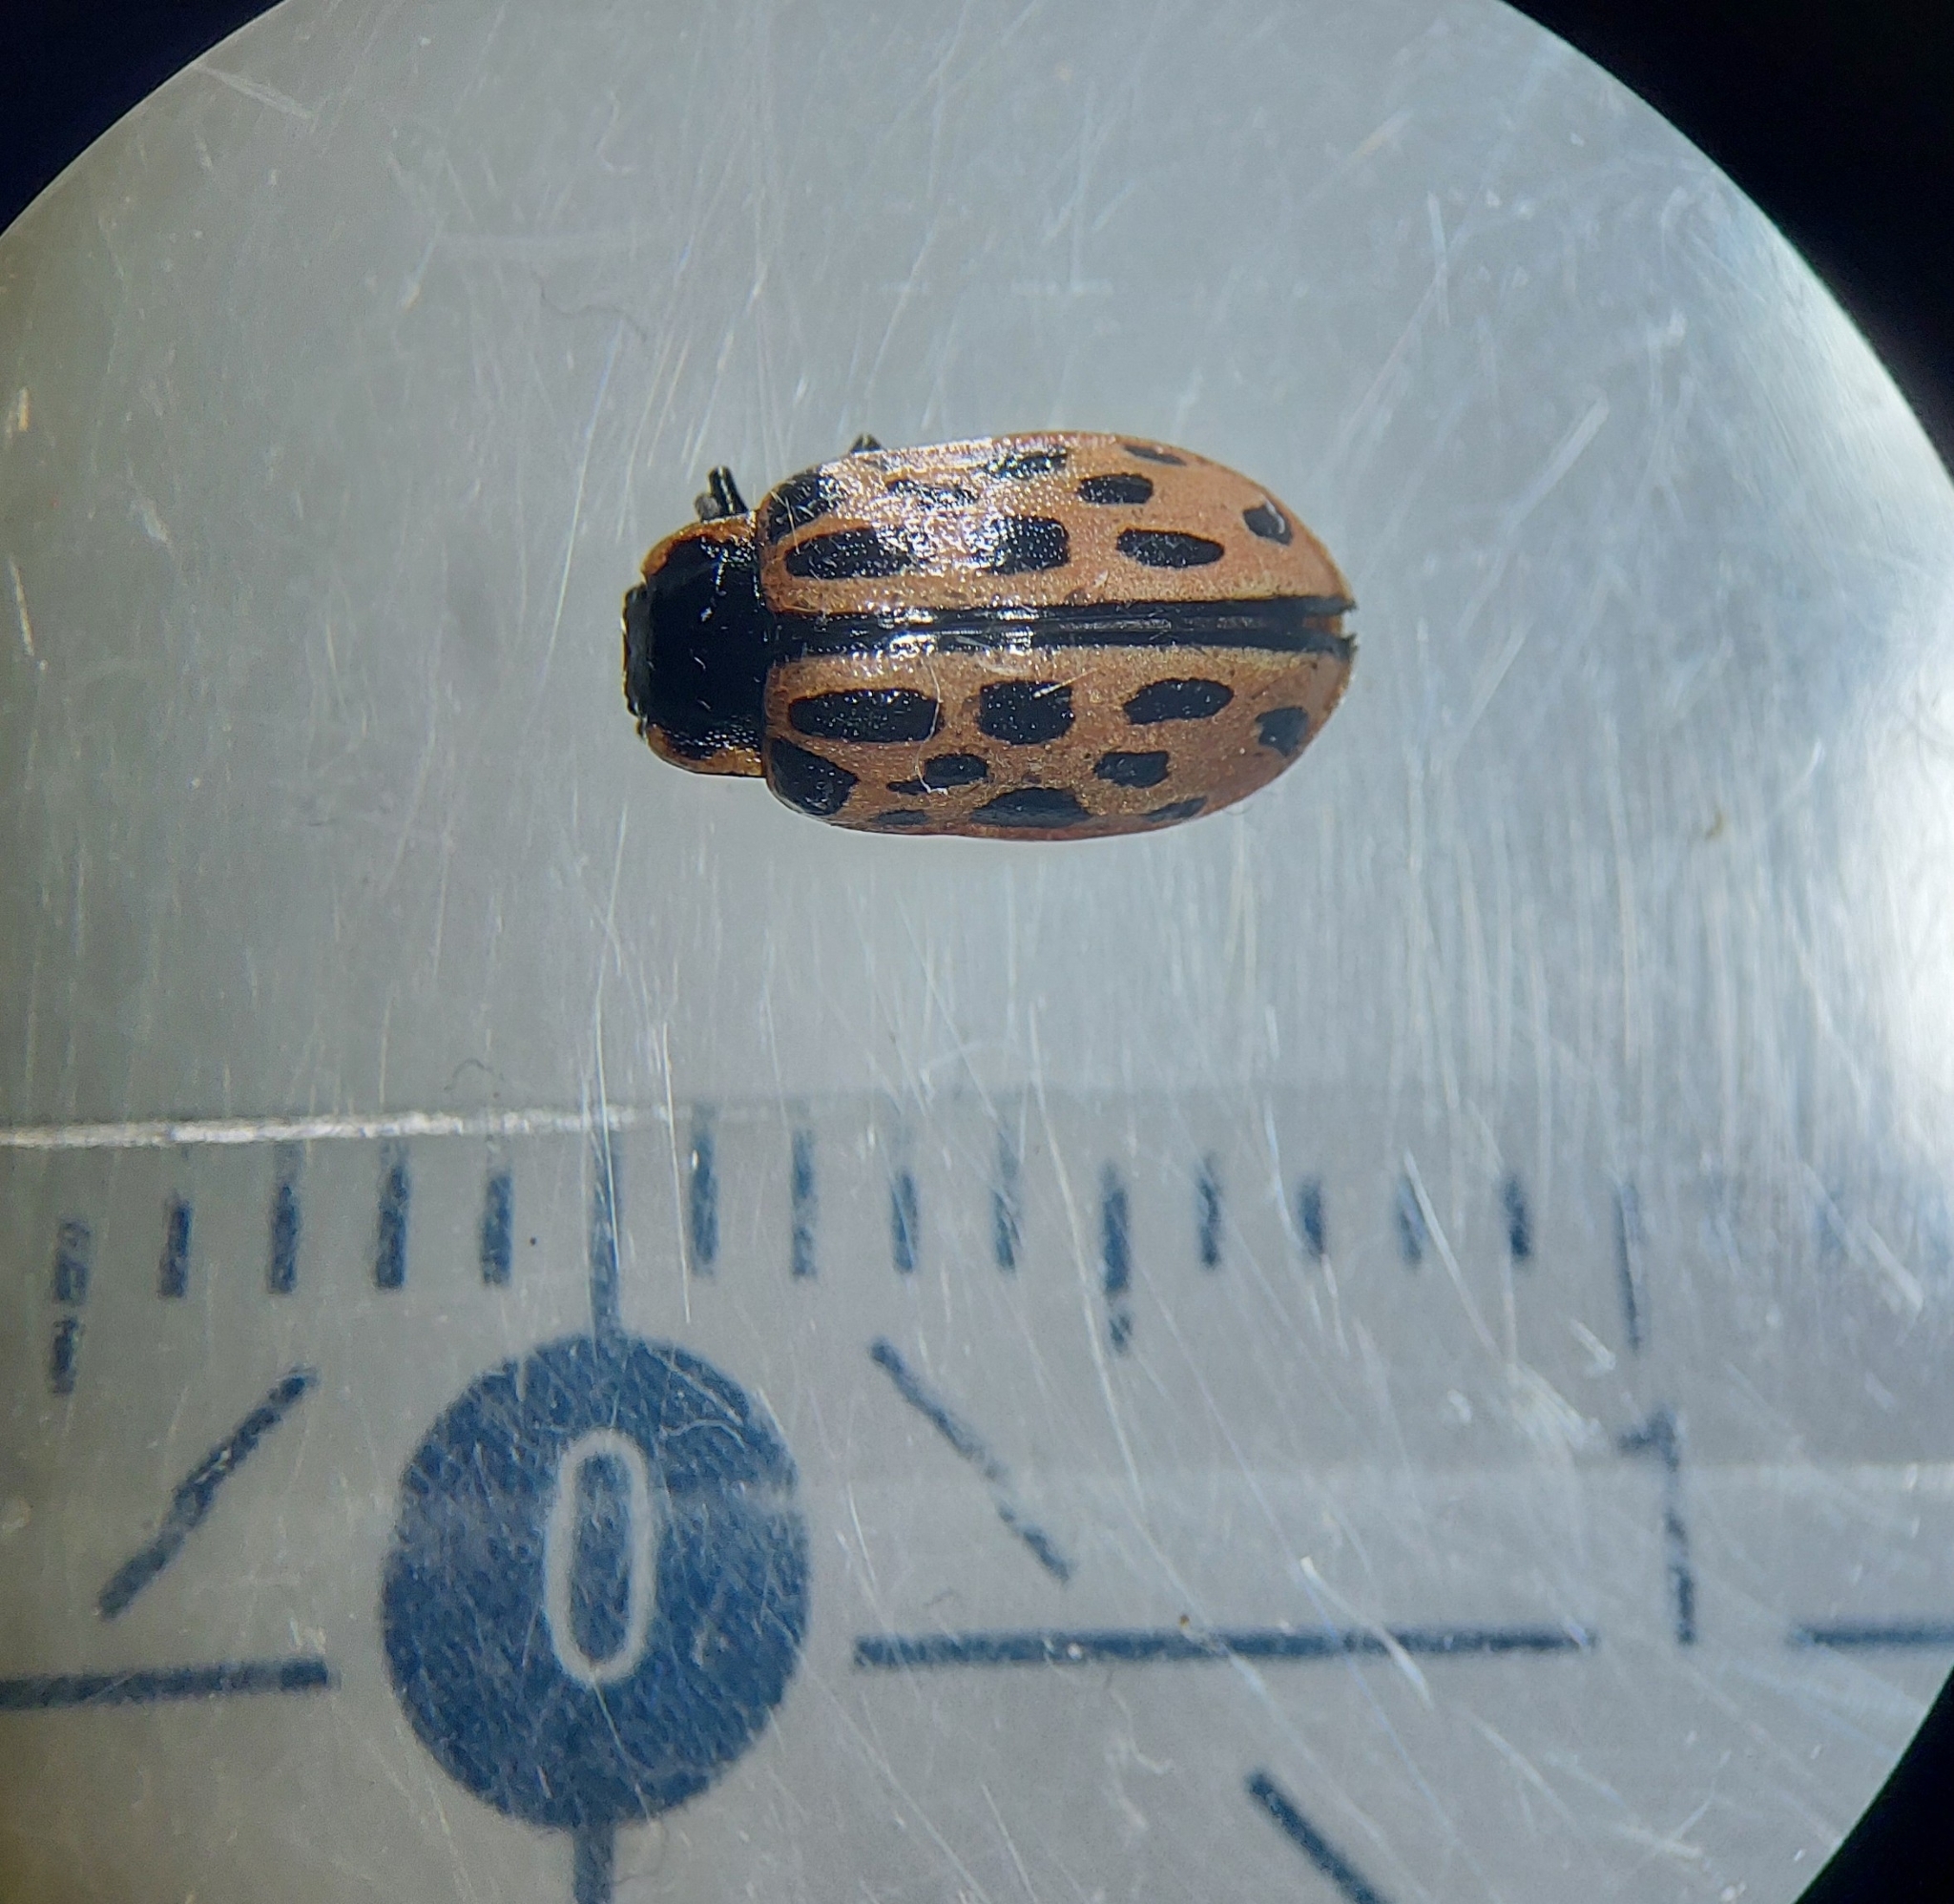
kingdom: Animalia
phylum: Arthropoda
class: Insecta
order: Coleoptera
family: Chrysomelidae
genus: Chrysomela
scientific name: Chrysomela vigintipunctata
